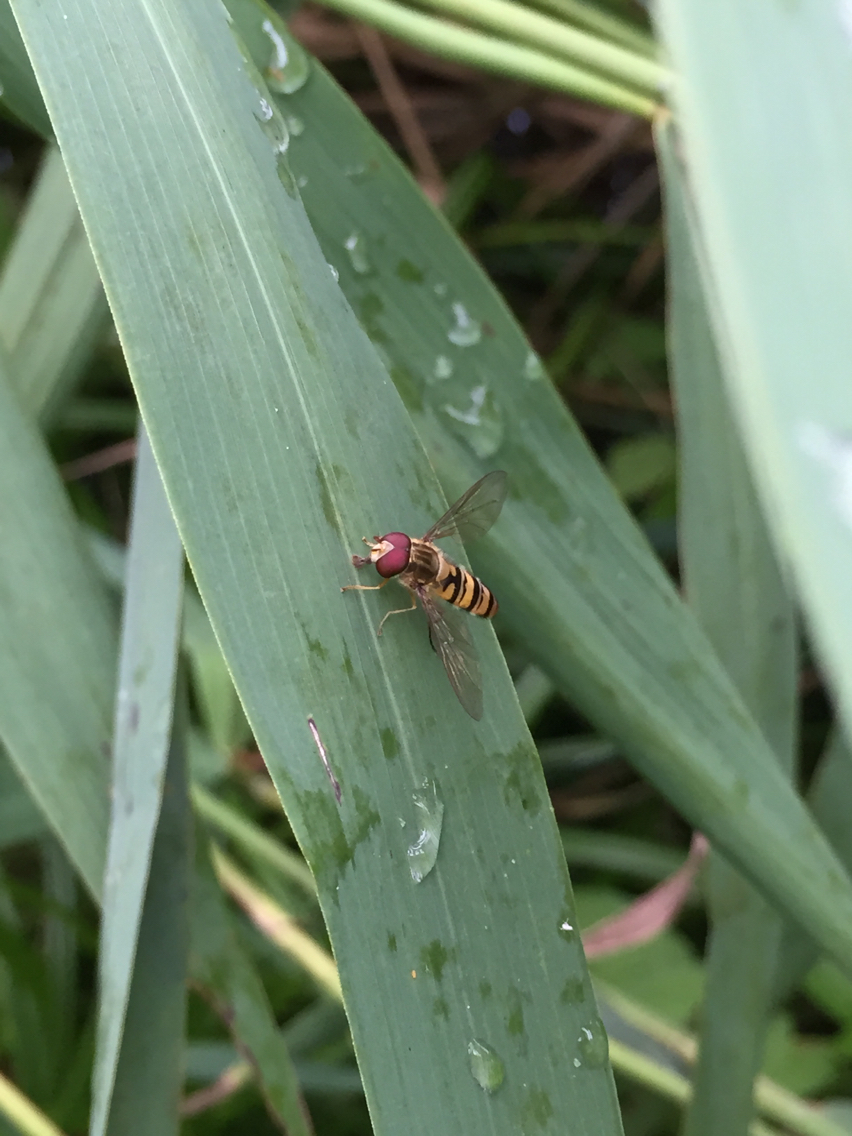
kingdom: Animalia
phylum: Arthropoda
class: Insecta
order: Diptera
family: Syrphidae
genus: Episyrphus
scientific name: Episyrphus balteatus
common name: Marmalade hoverfly
